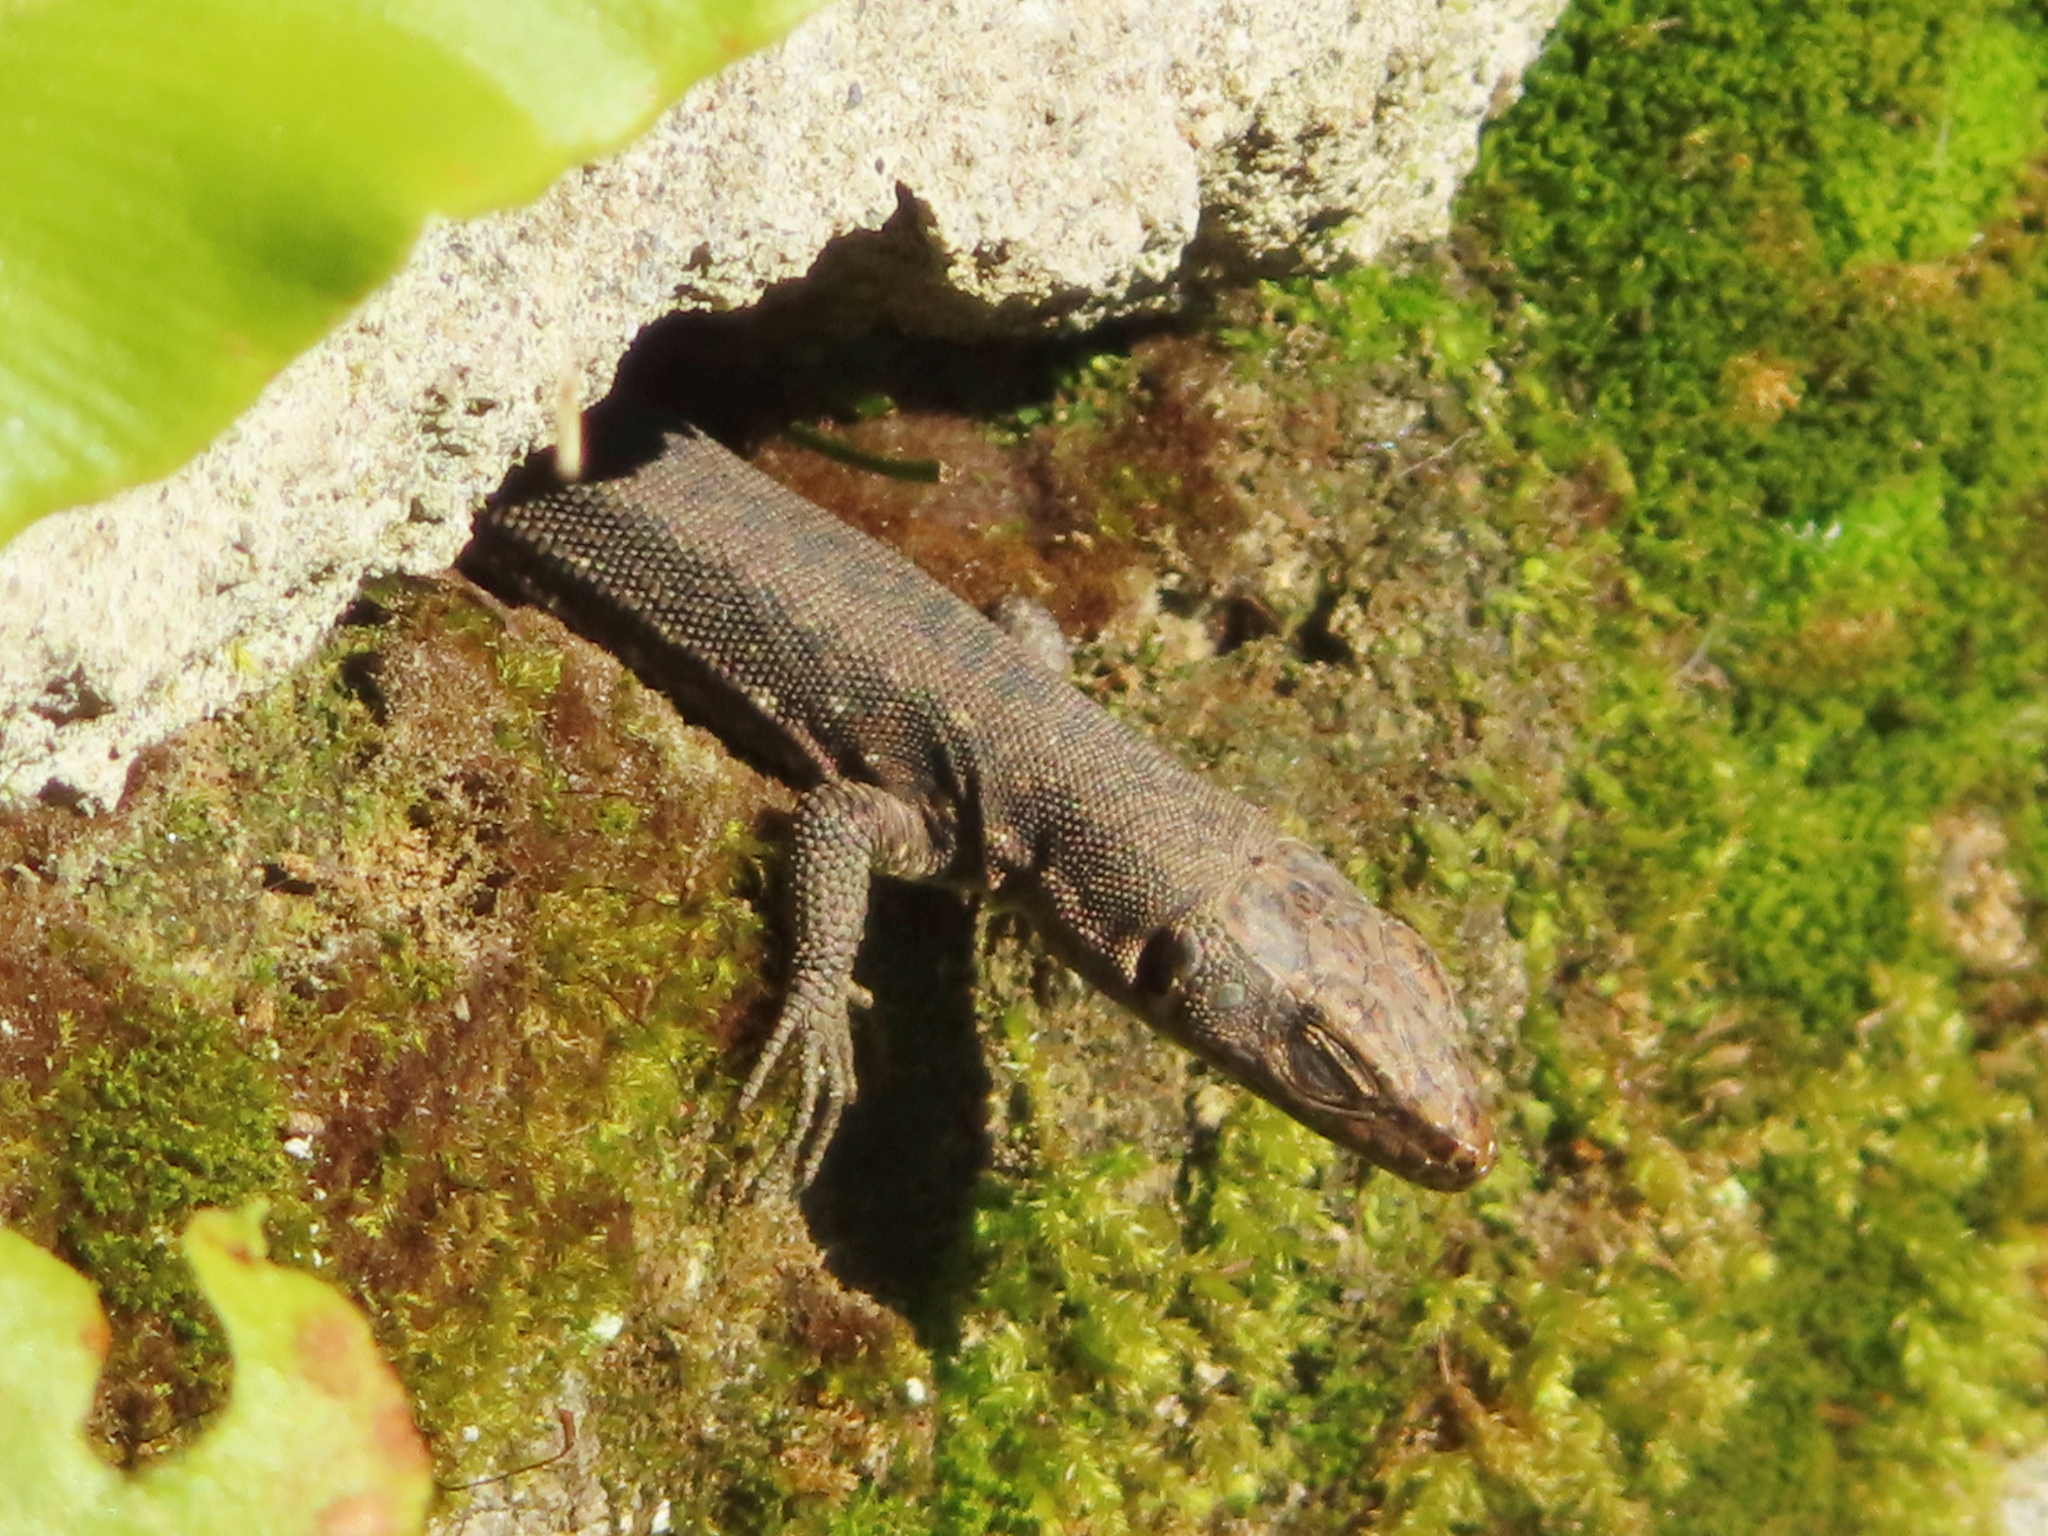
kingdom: Animalia
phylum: Chordata
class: Squamata
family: Lacertidae
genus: Darevskia
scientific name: Darevskia rudis
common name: Spiny-tailed lizard
